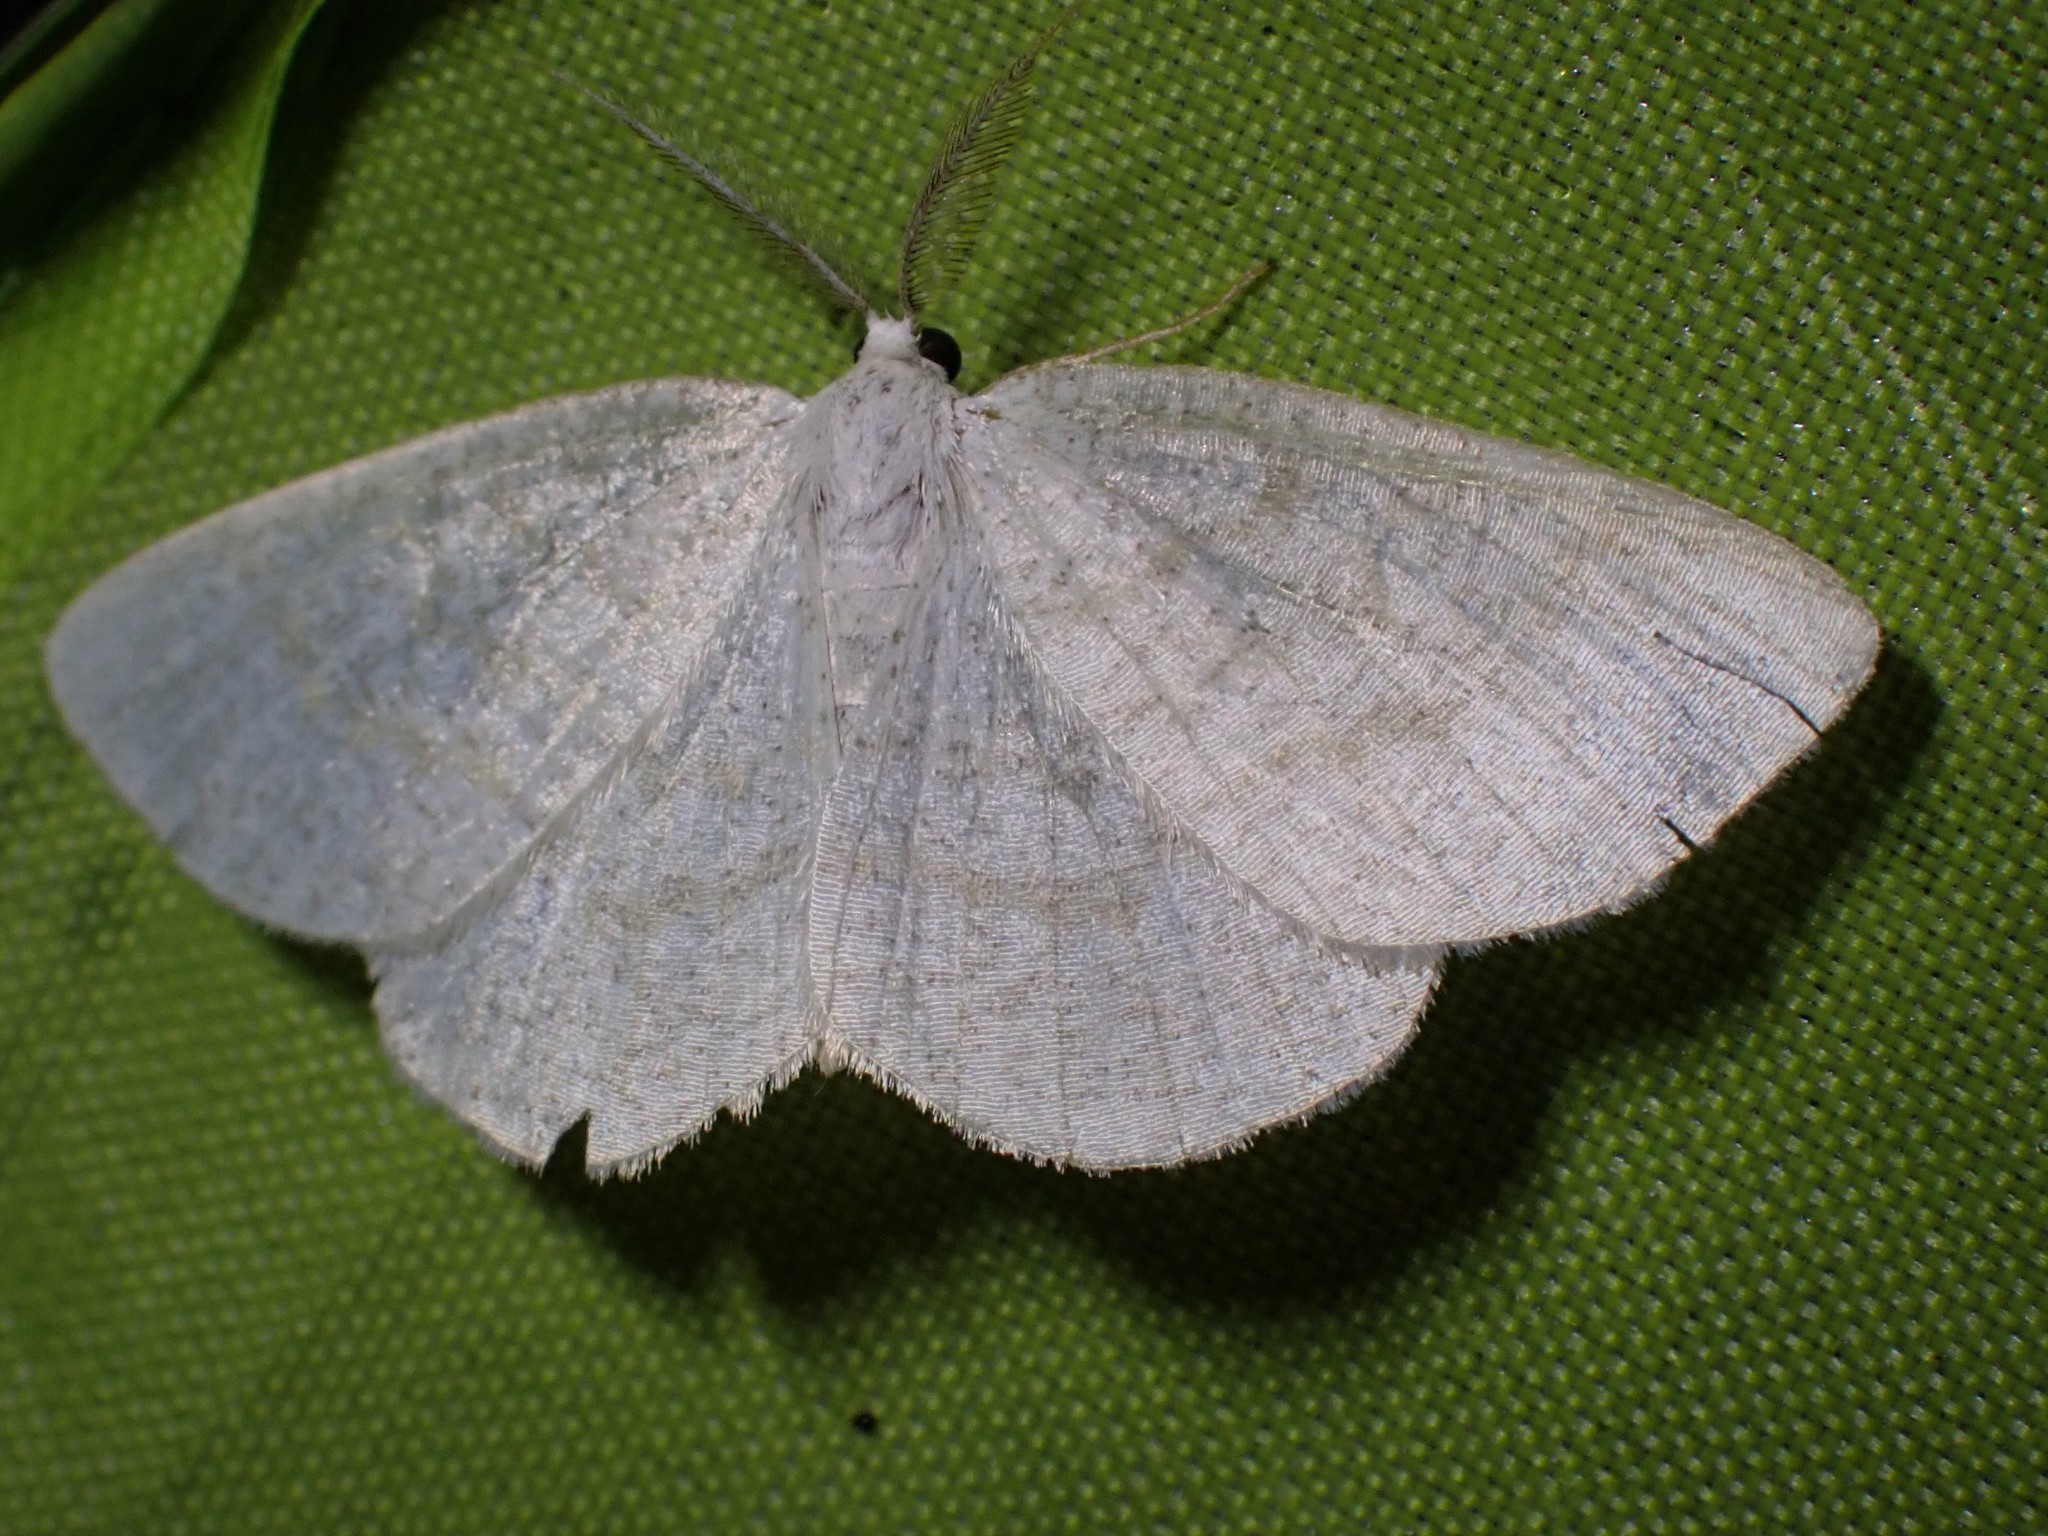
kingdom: Animalia
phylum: Arthropoda
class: Insecta
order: Lepidoptera
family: Geometridae
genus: Cabera
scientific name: Cabera exanthemata
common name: Common wave
